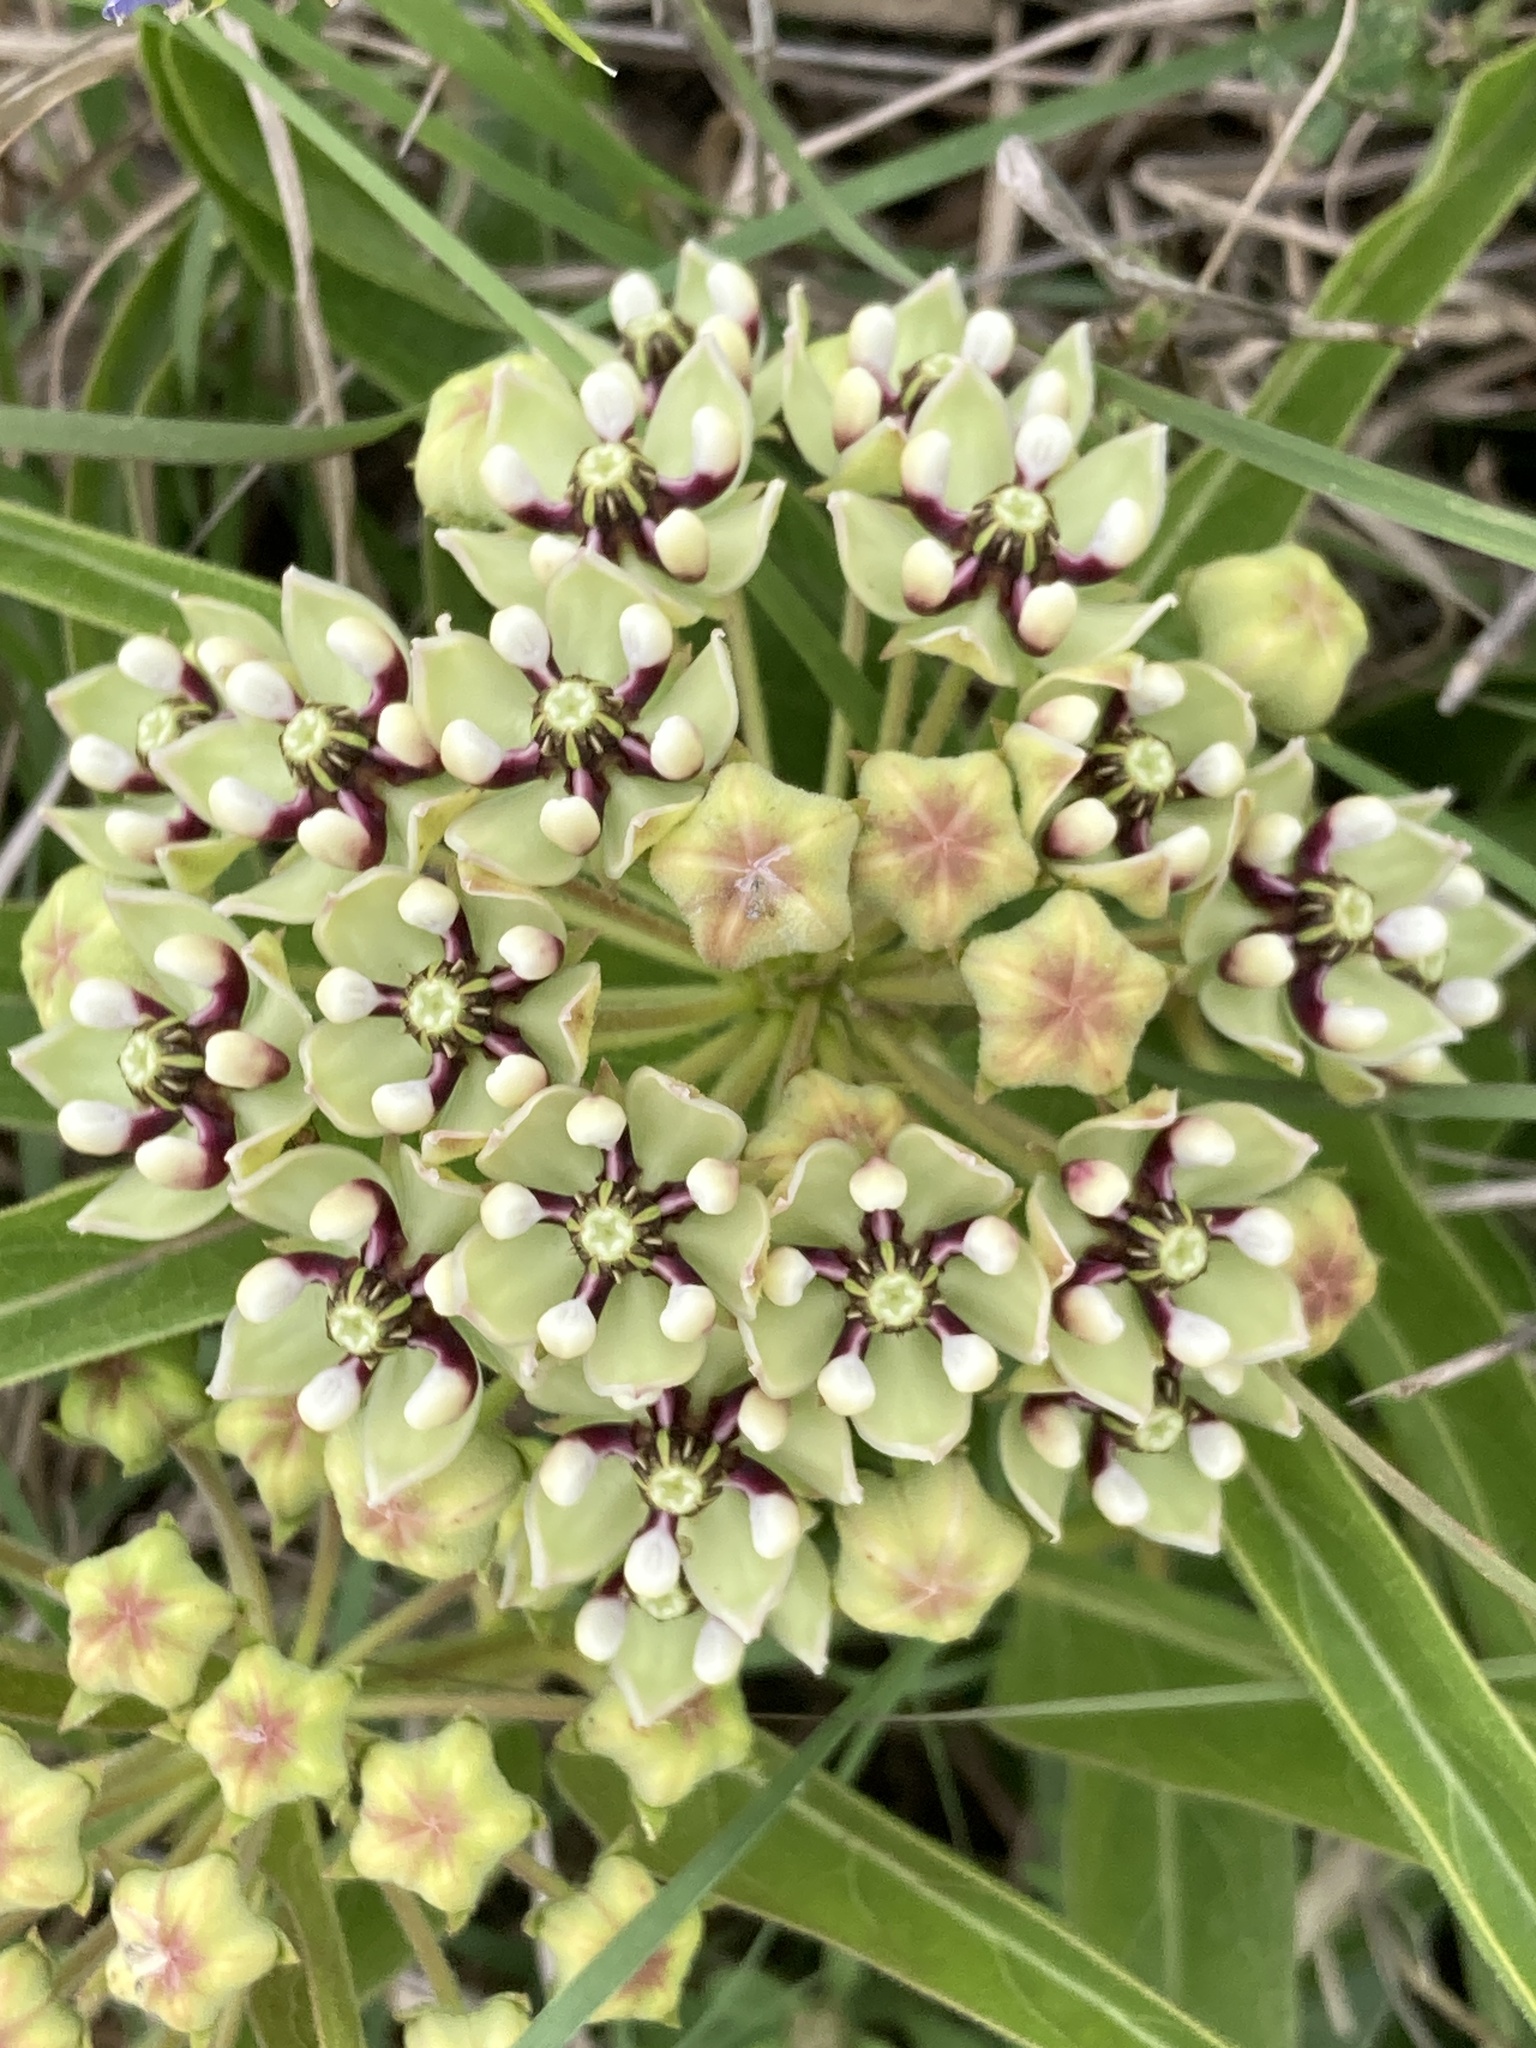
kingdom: Plantae
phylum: Tracheophyta
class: Magnoliopsida
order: Gentianales
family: Apocynaceae
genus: Asclepias
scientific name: Asclepias asperula
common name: Antelope horns
